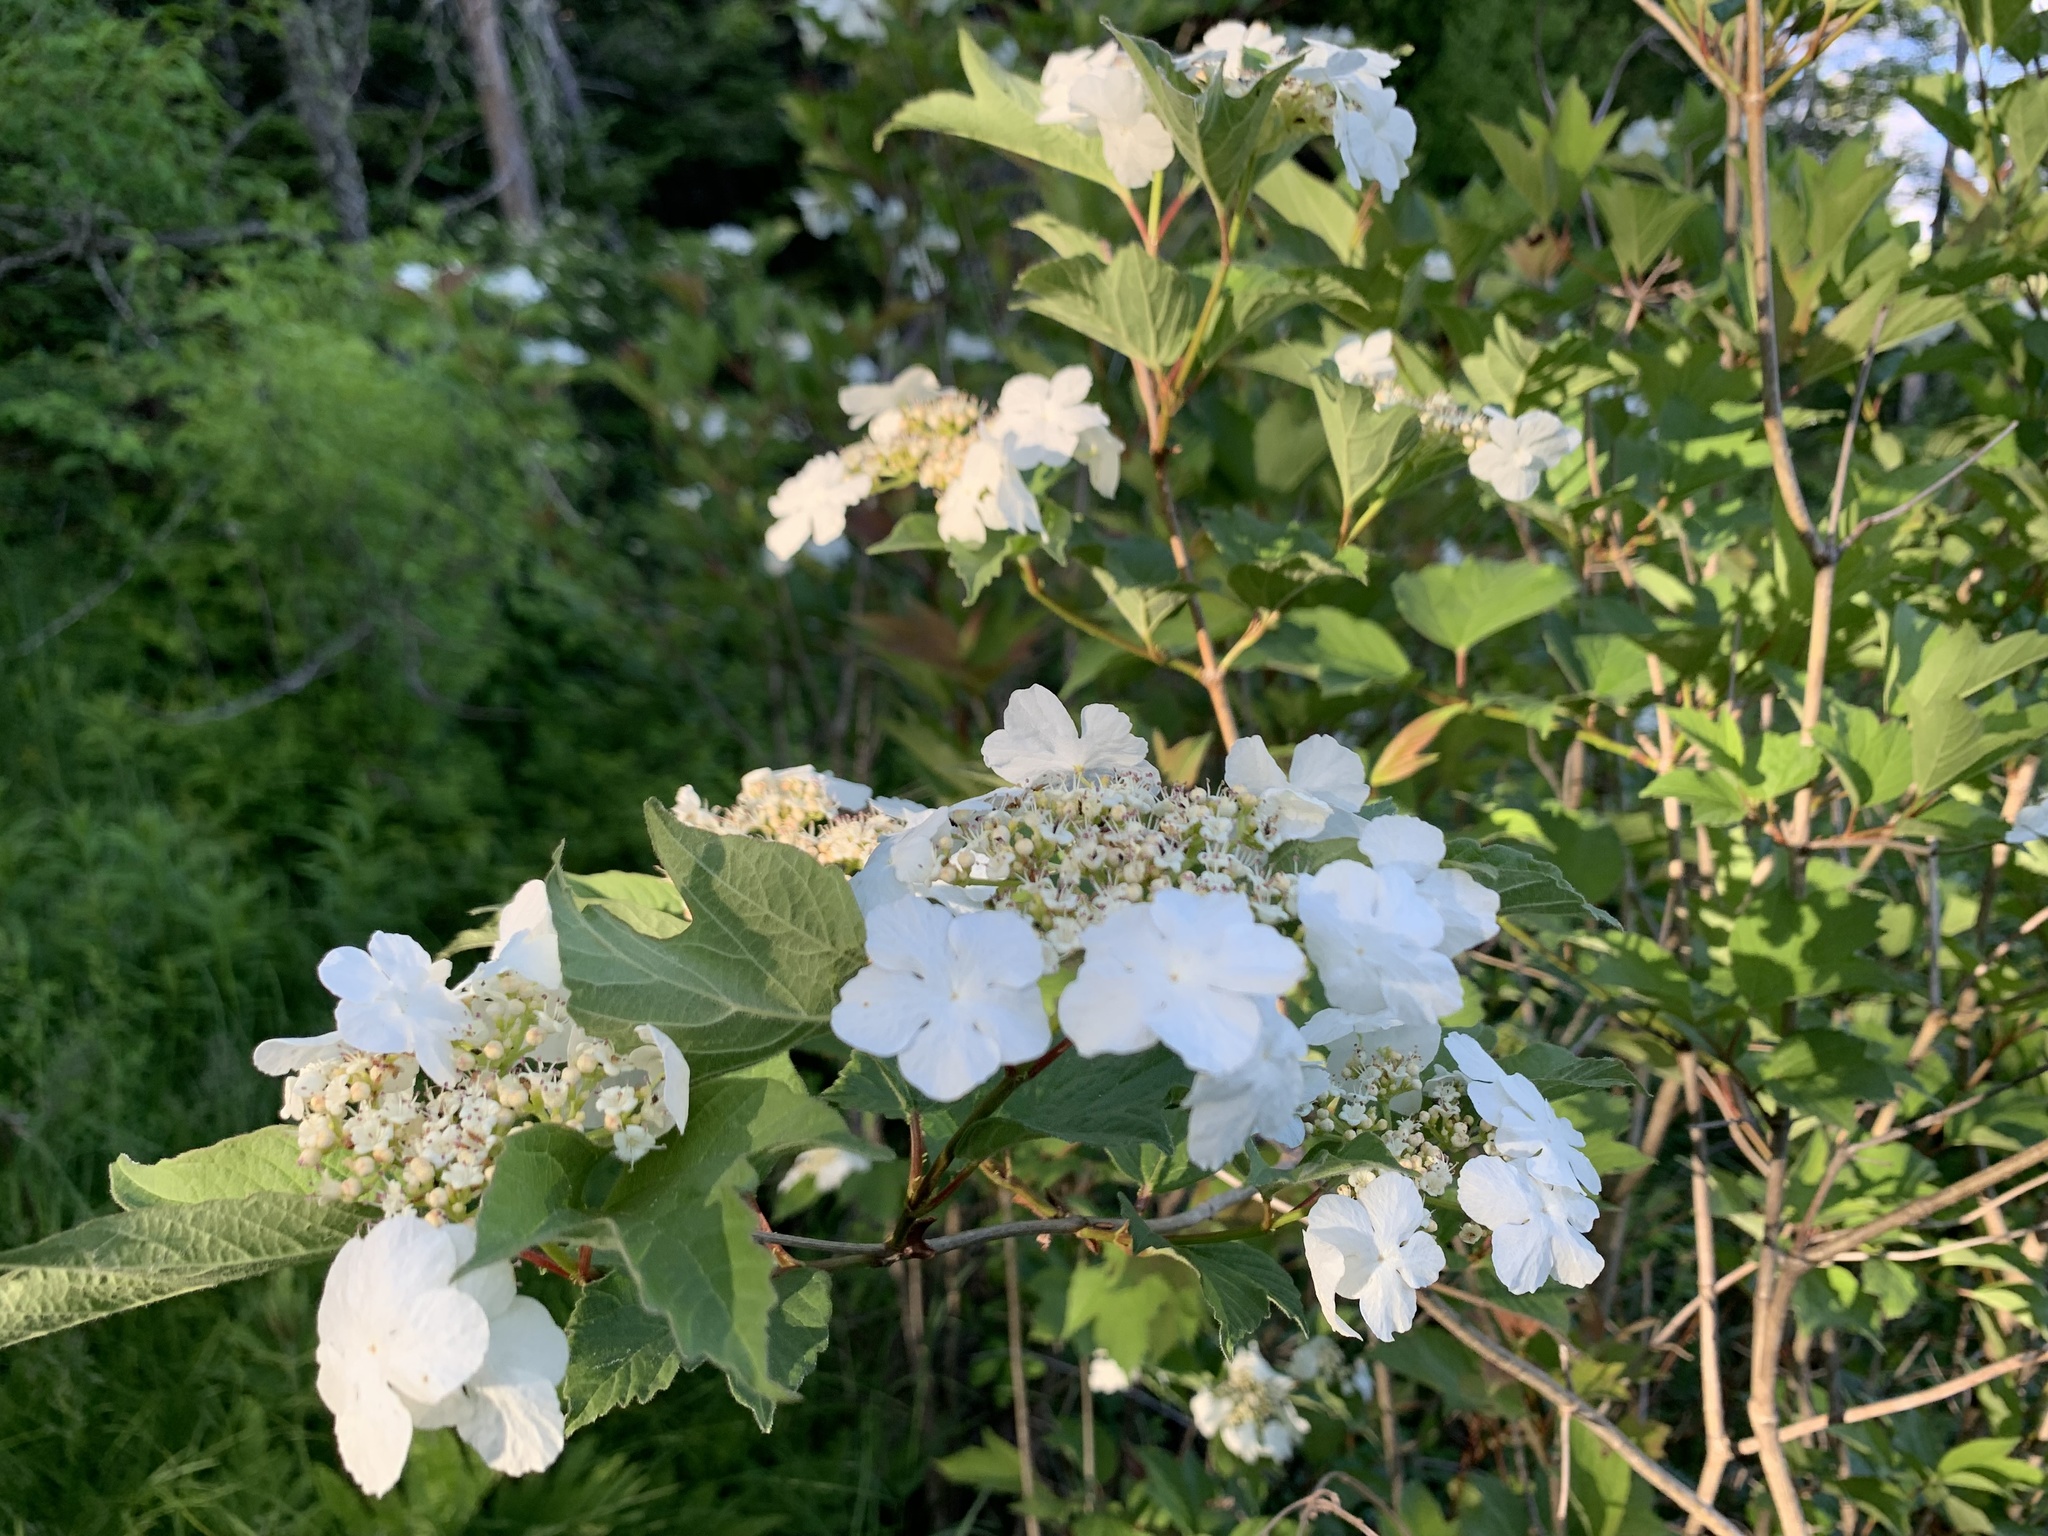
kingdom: Plantae
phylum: Tracheophyta
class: Magnoliopsida
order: Dipsacales
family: Viburnaceae
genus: Viburnum
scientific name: Viburnum opulus
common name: Guelder-rose
